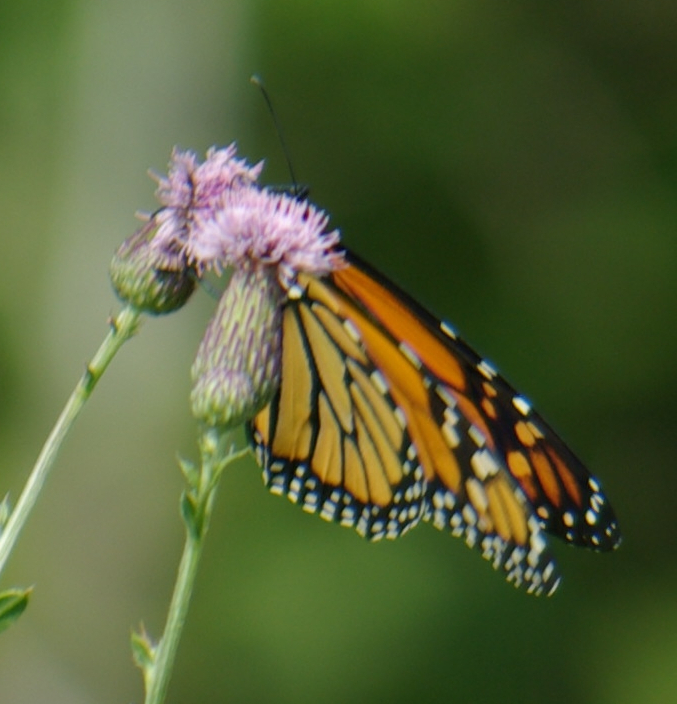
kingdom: Animalia
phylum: Arthropoda
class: Insecta
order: Lepidoptera
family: Nymphalidae
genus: Danaus
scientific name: Danaus plexippus
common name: Monarch
